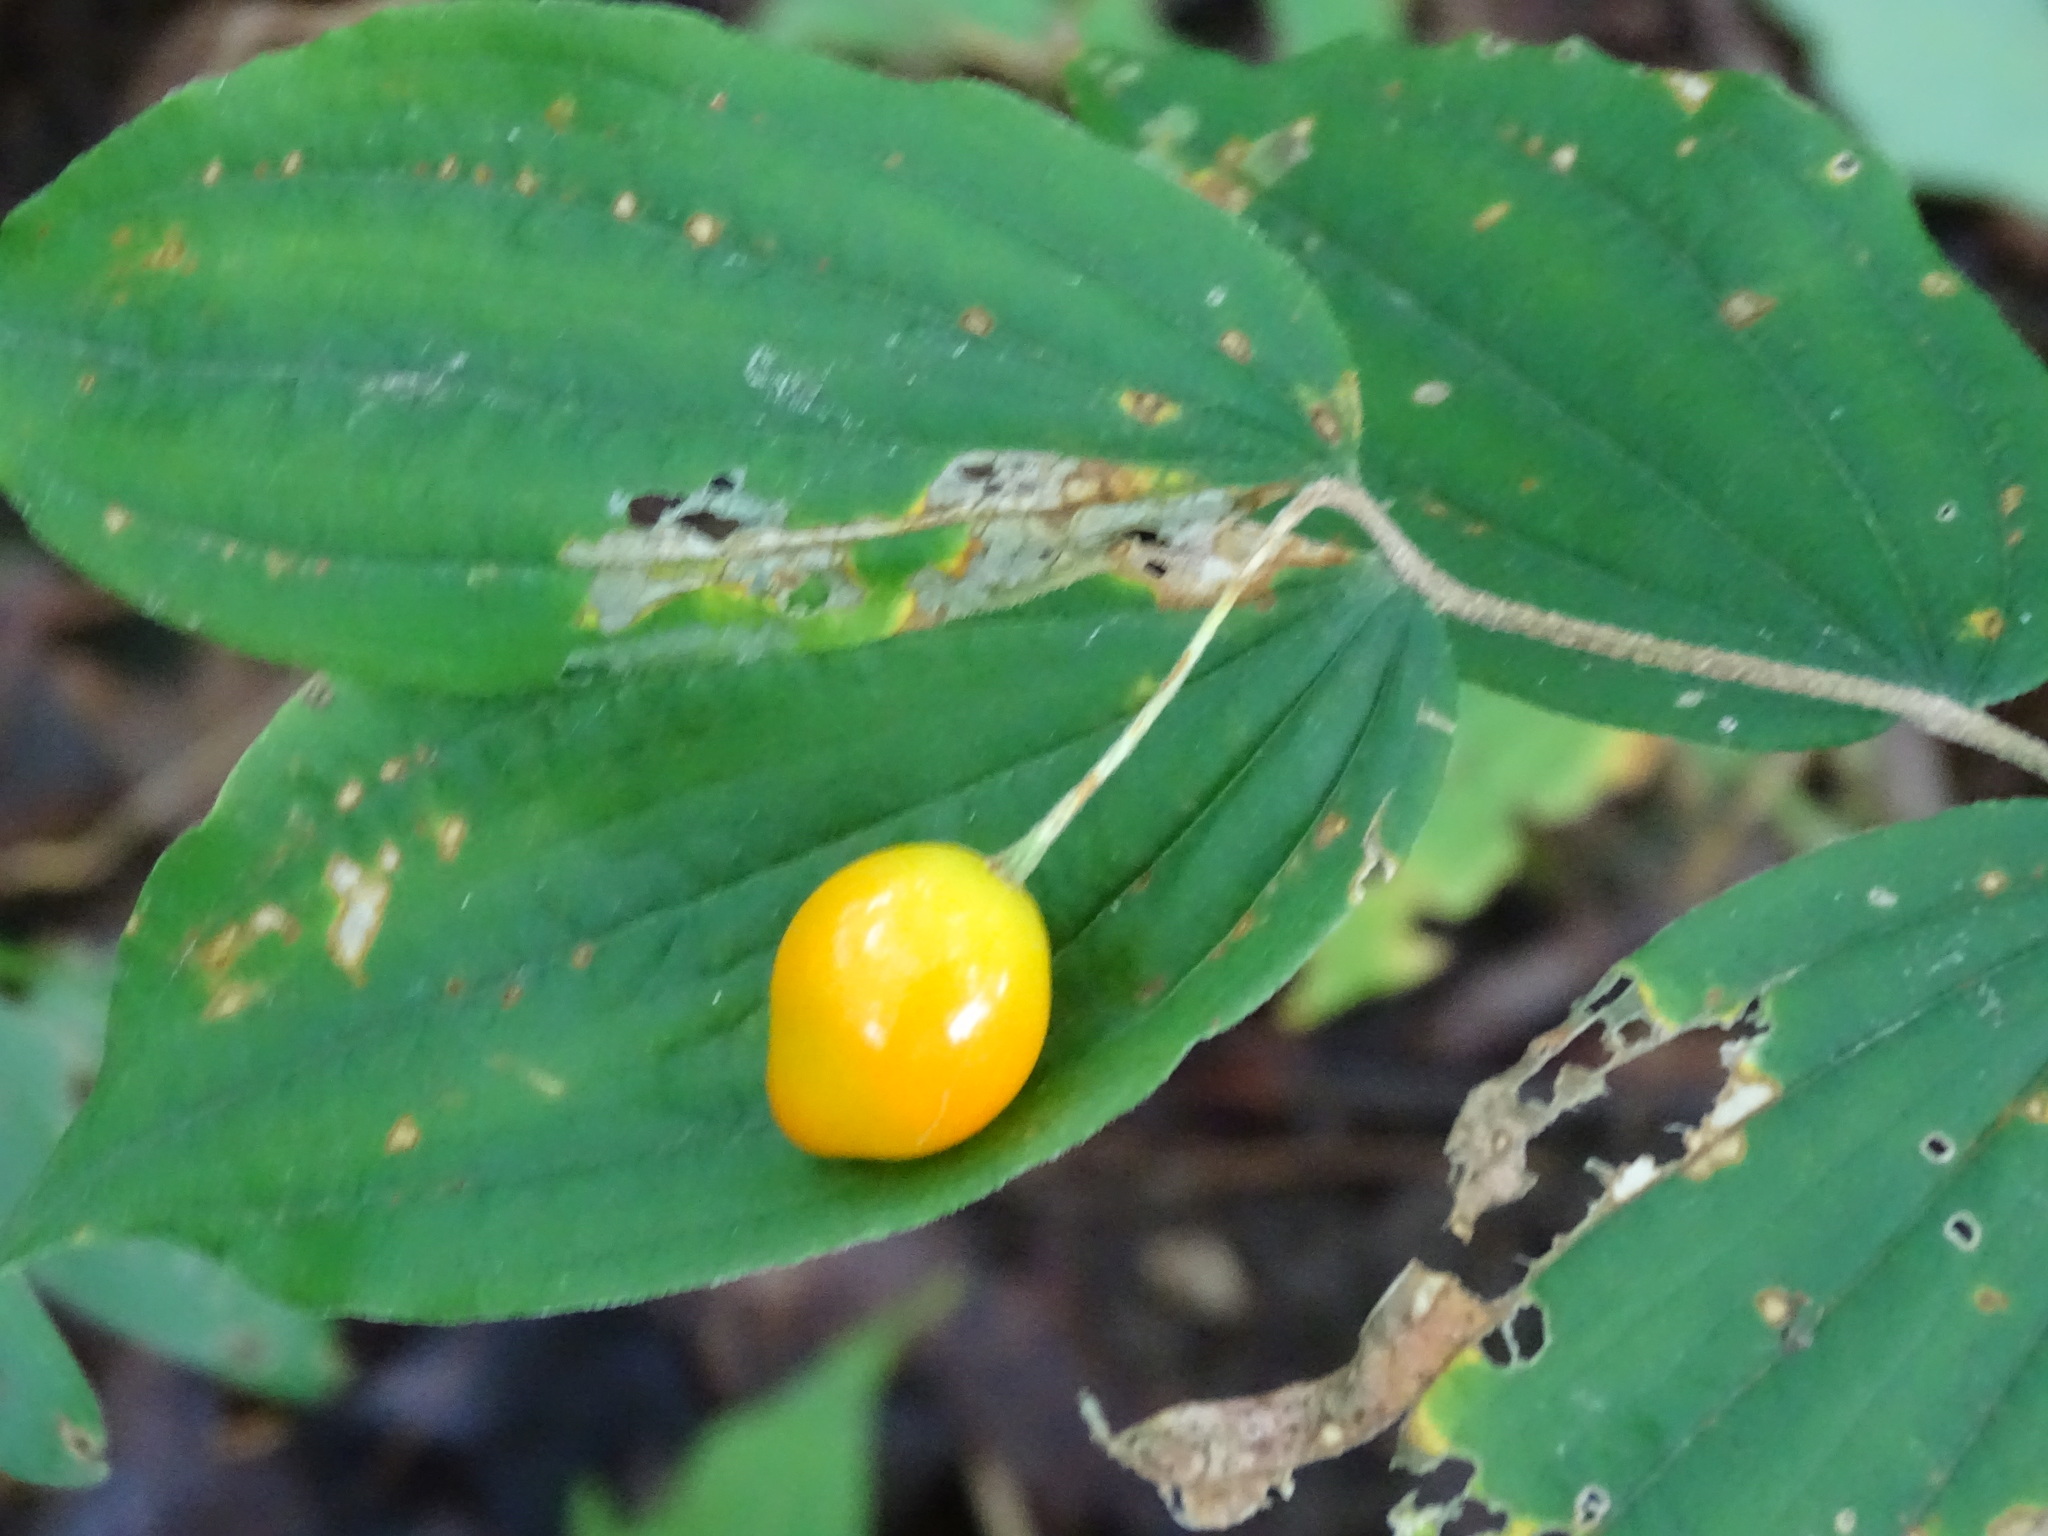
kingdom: Plantae
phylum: Tracheophyta
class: Liliopsida
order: Liliales
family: Liliaceae
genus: Prosartes
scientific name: Prosartes lanuginosa
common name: Hairy mandarin
